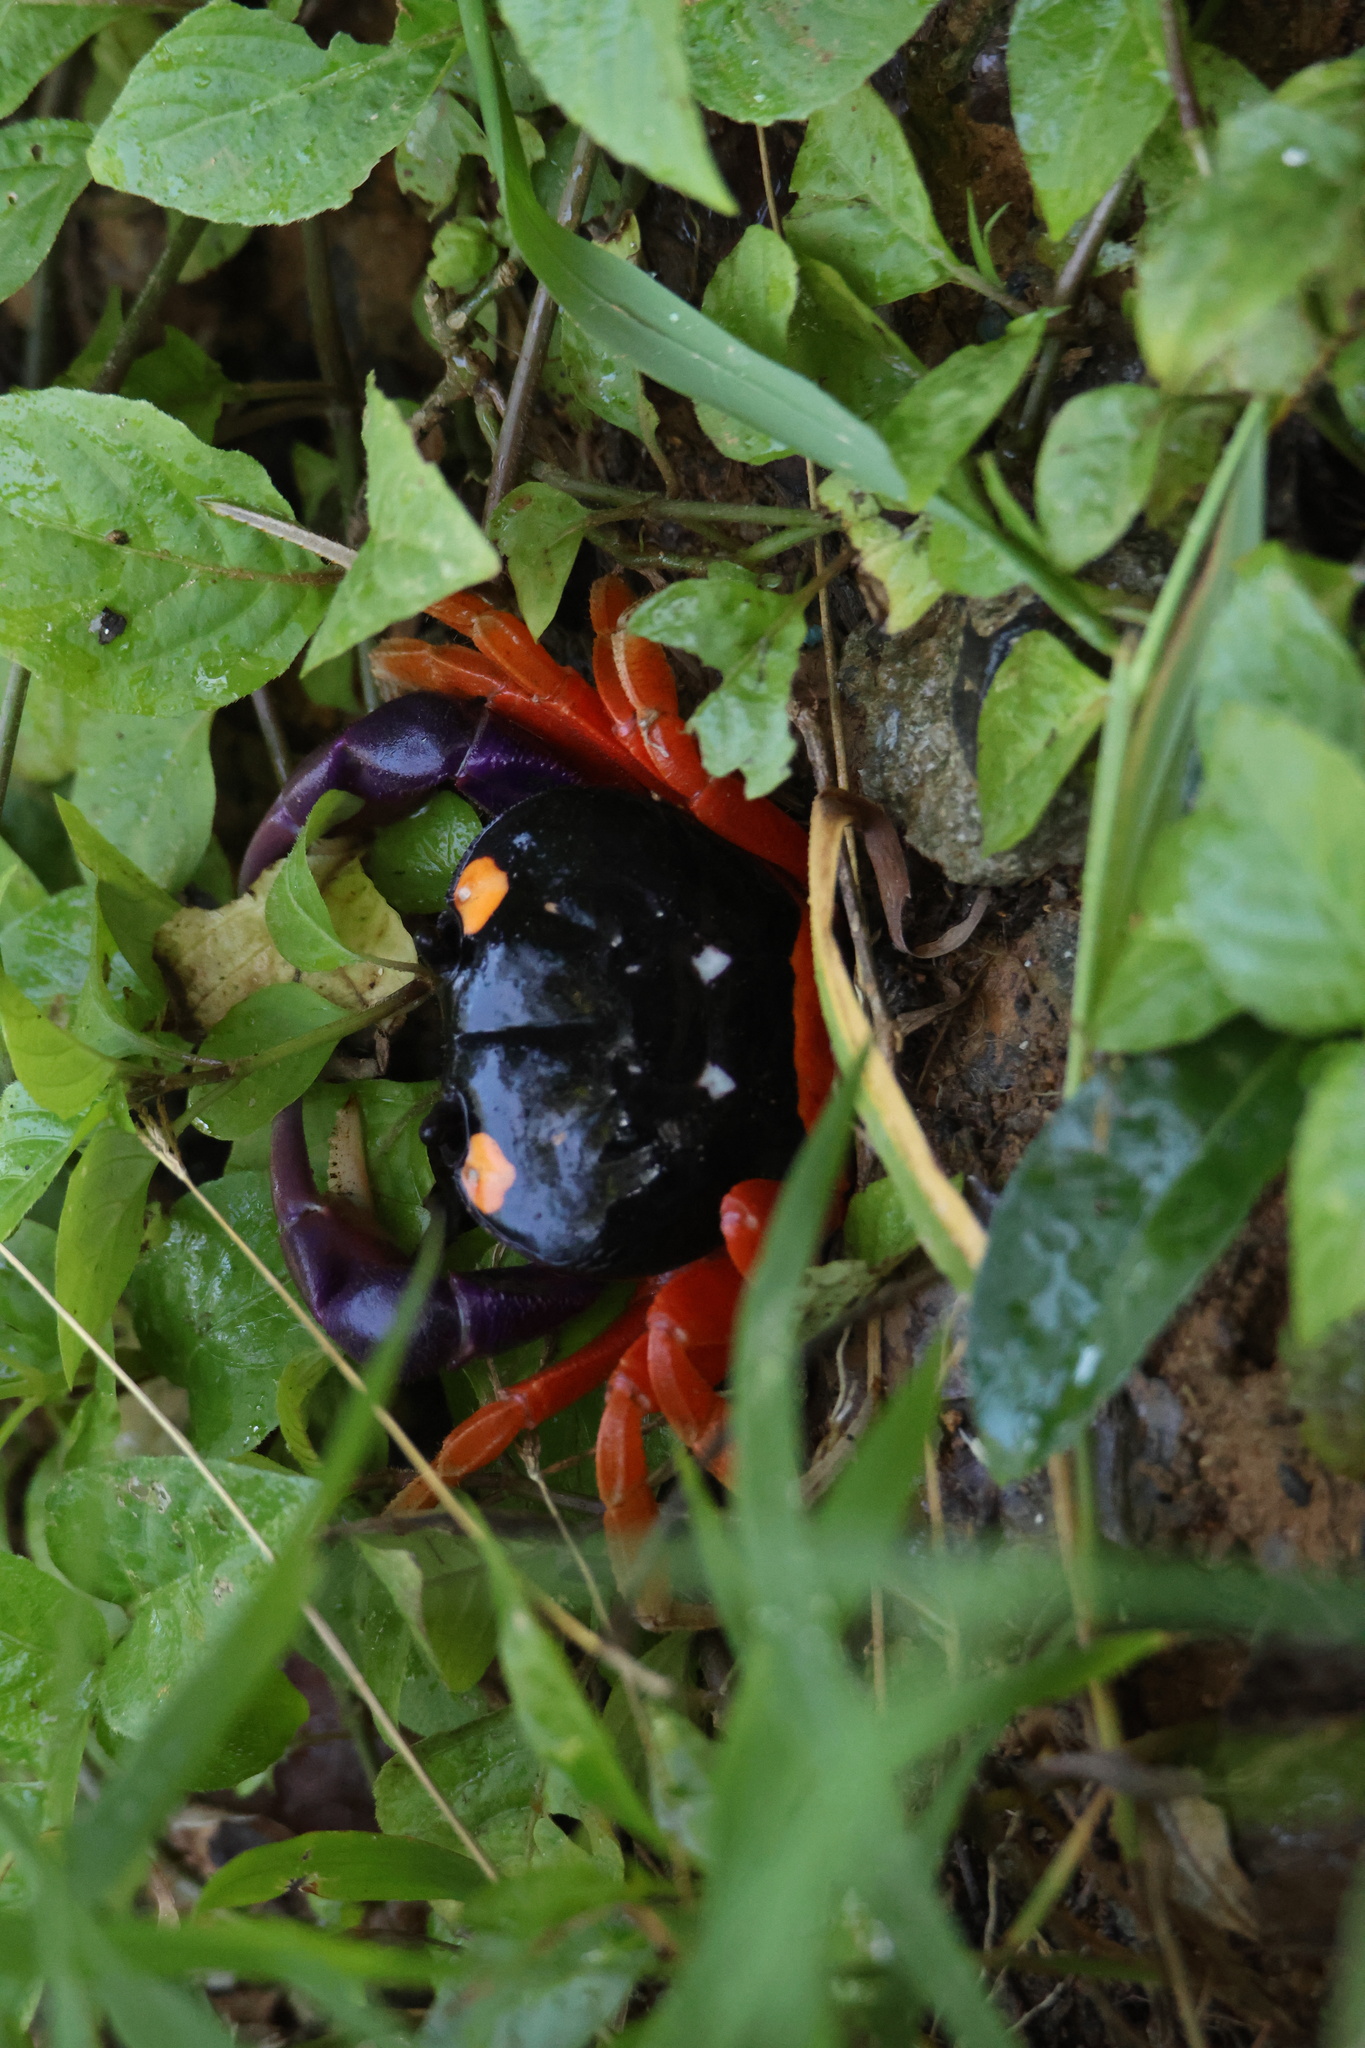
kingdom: Animalia
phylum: Arthropoda
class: Malacostraca
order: Decapoda
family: Gecarcinidae
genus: Gecarcinus
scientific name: Gecarcinus quadratus
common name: Halloween crab
